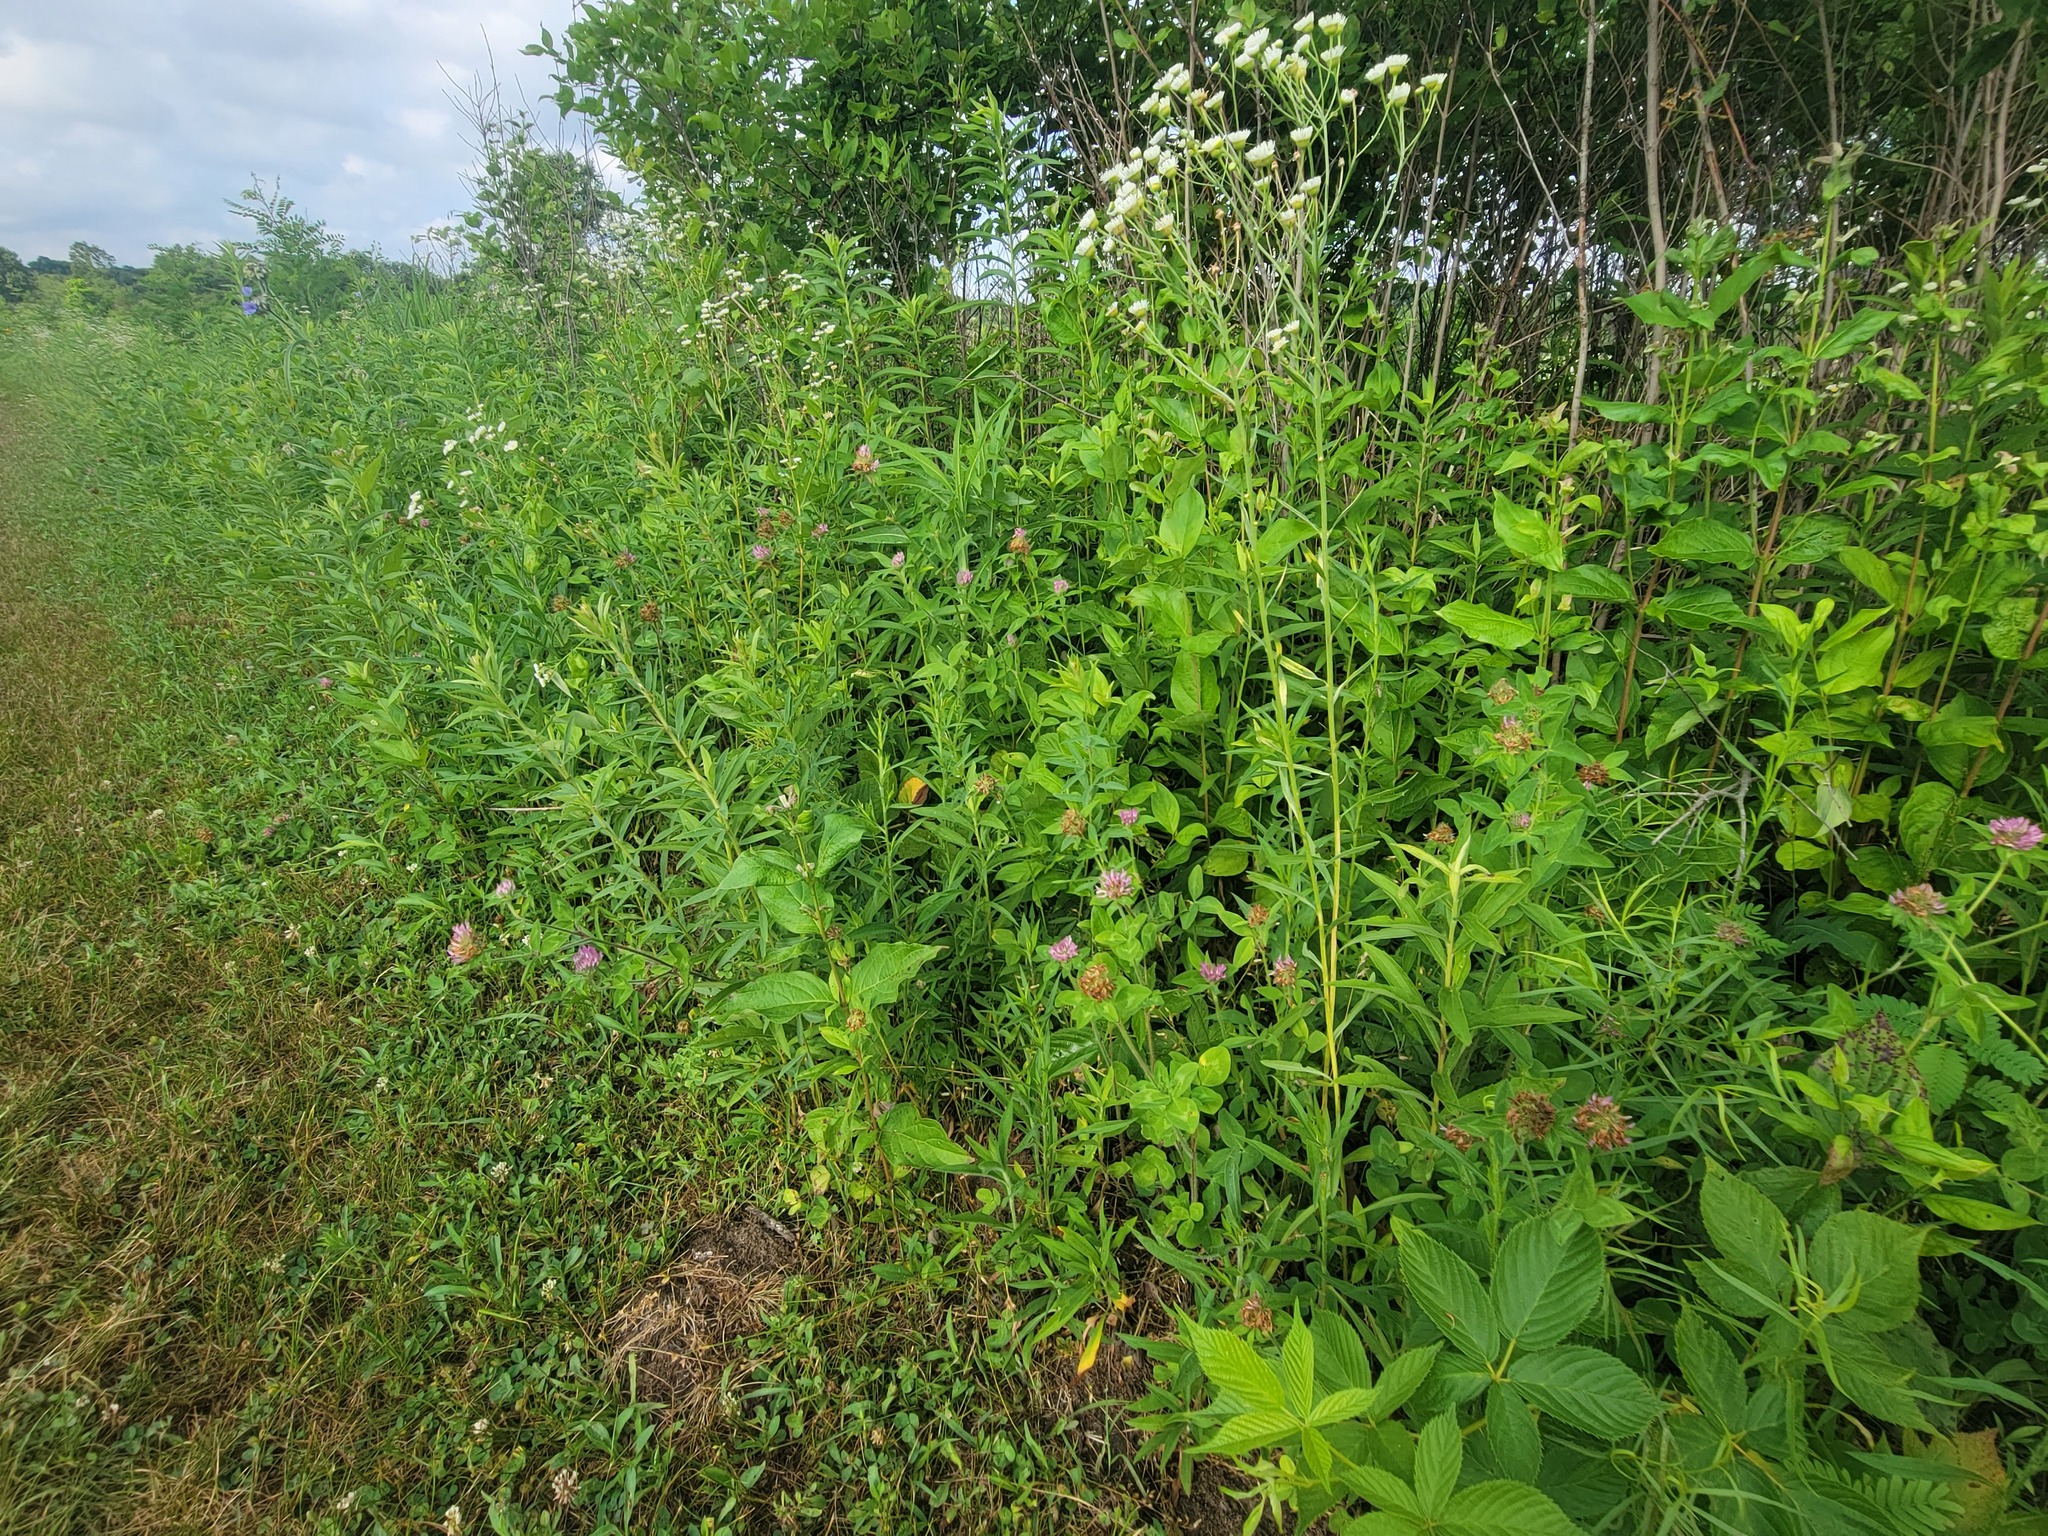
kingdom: Plantae
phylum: Tracheophyta
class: Magnoliopsida
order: Fabales
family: Fabaceae
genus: Trifolium
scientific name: Trifolium pratense
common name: Red clover
